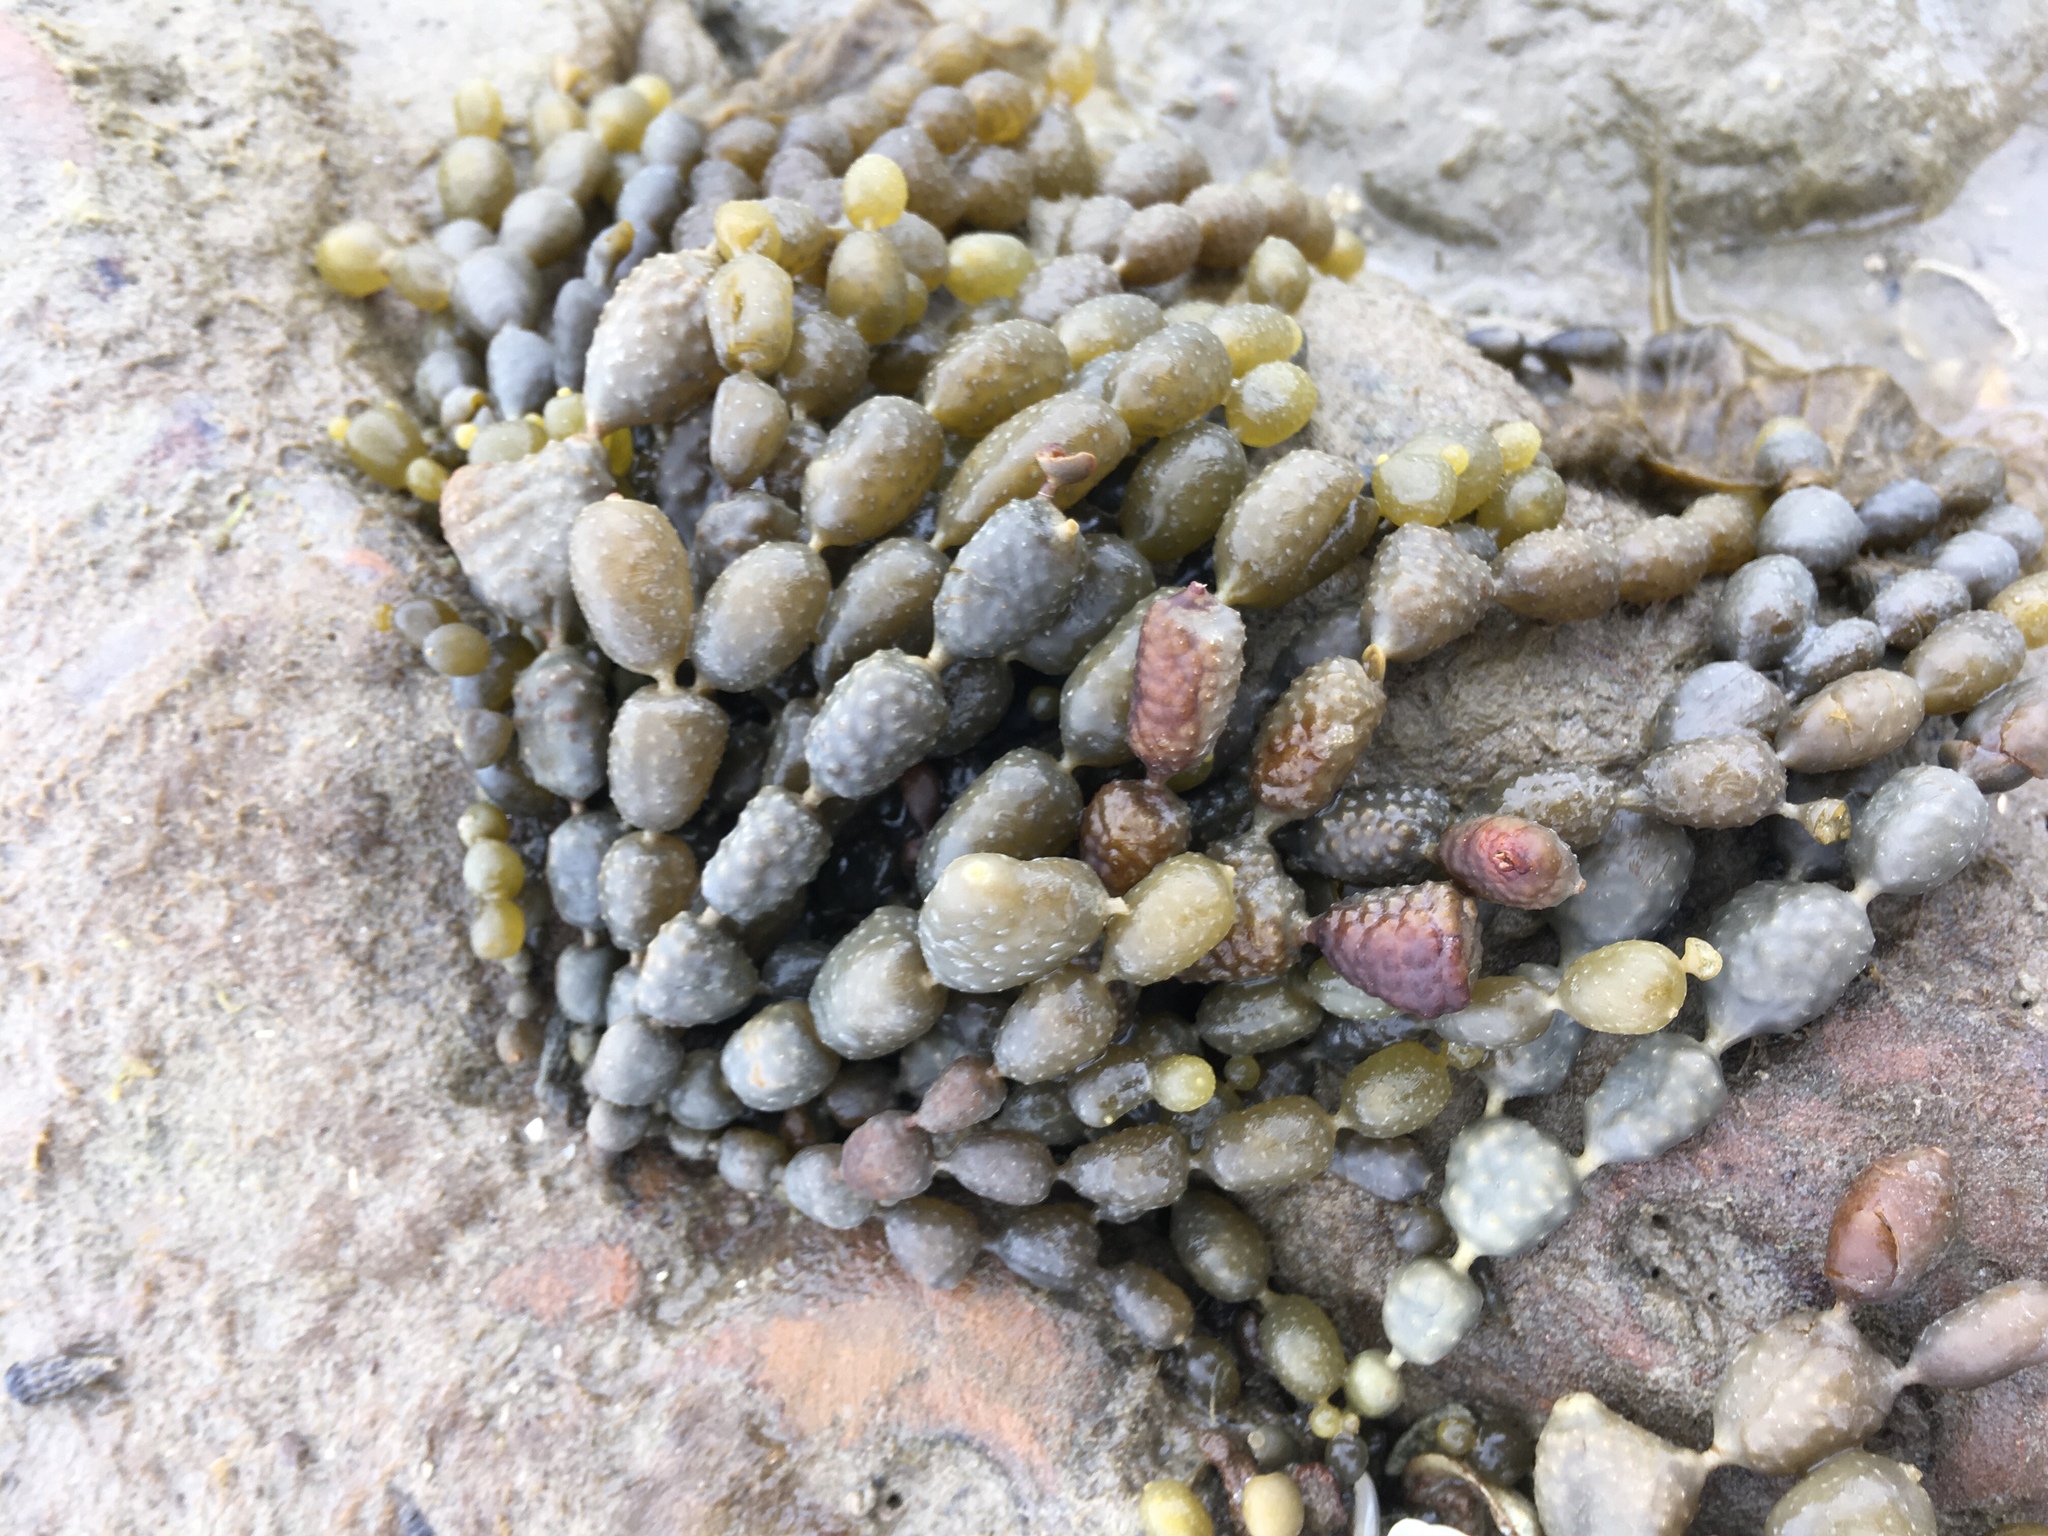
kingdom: Chromista
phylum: Ochrophyta
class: Phaeophyceae
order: Fucales
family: Hormosiraceae
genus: Hormosira
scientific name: Hormosira banksii
